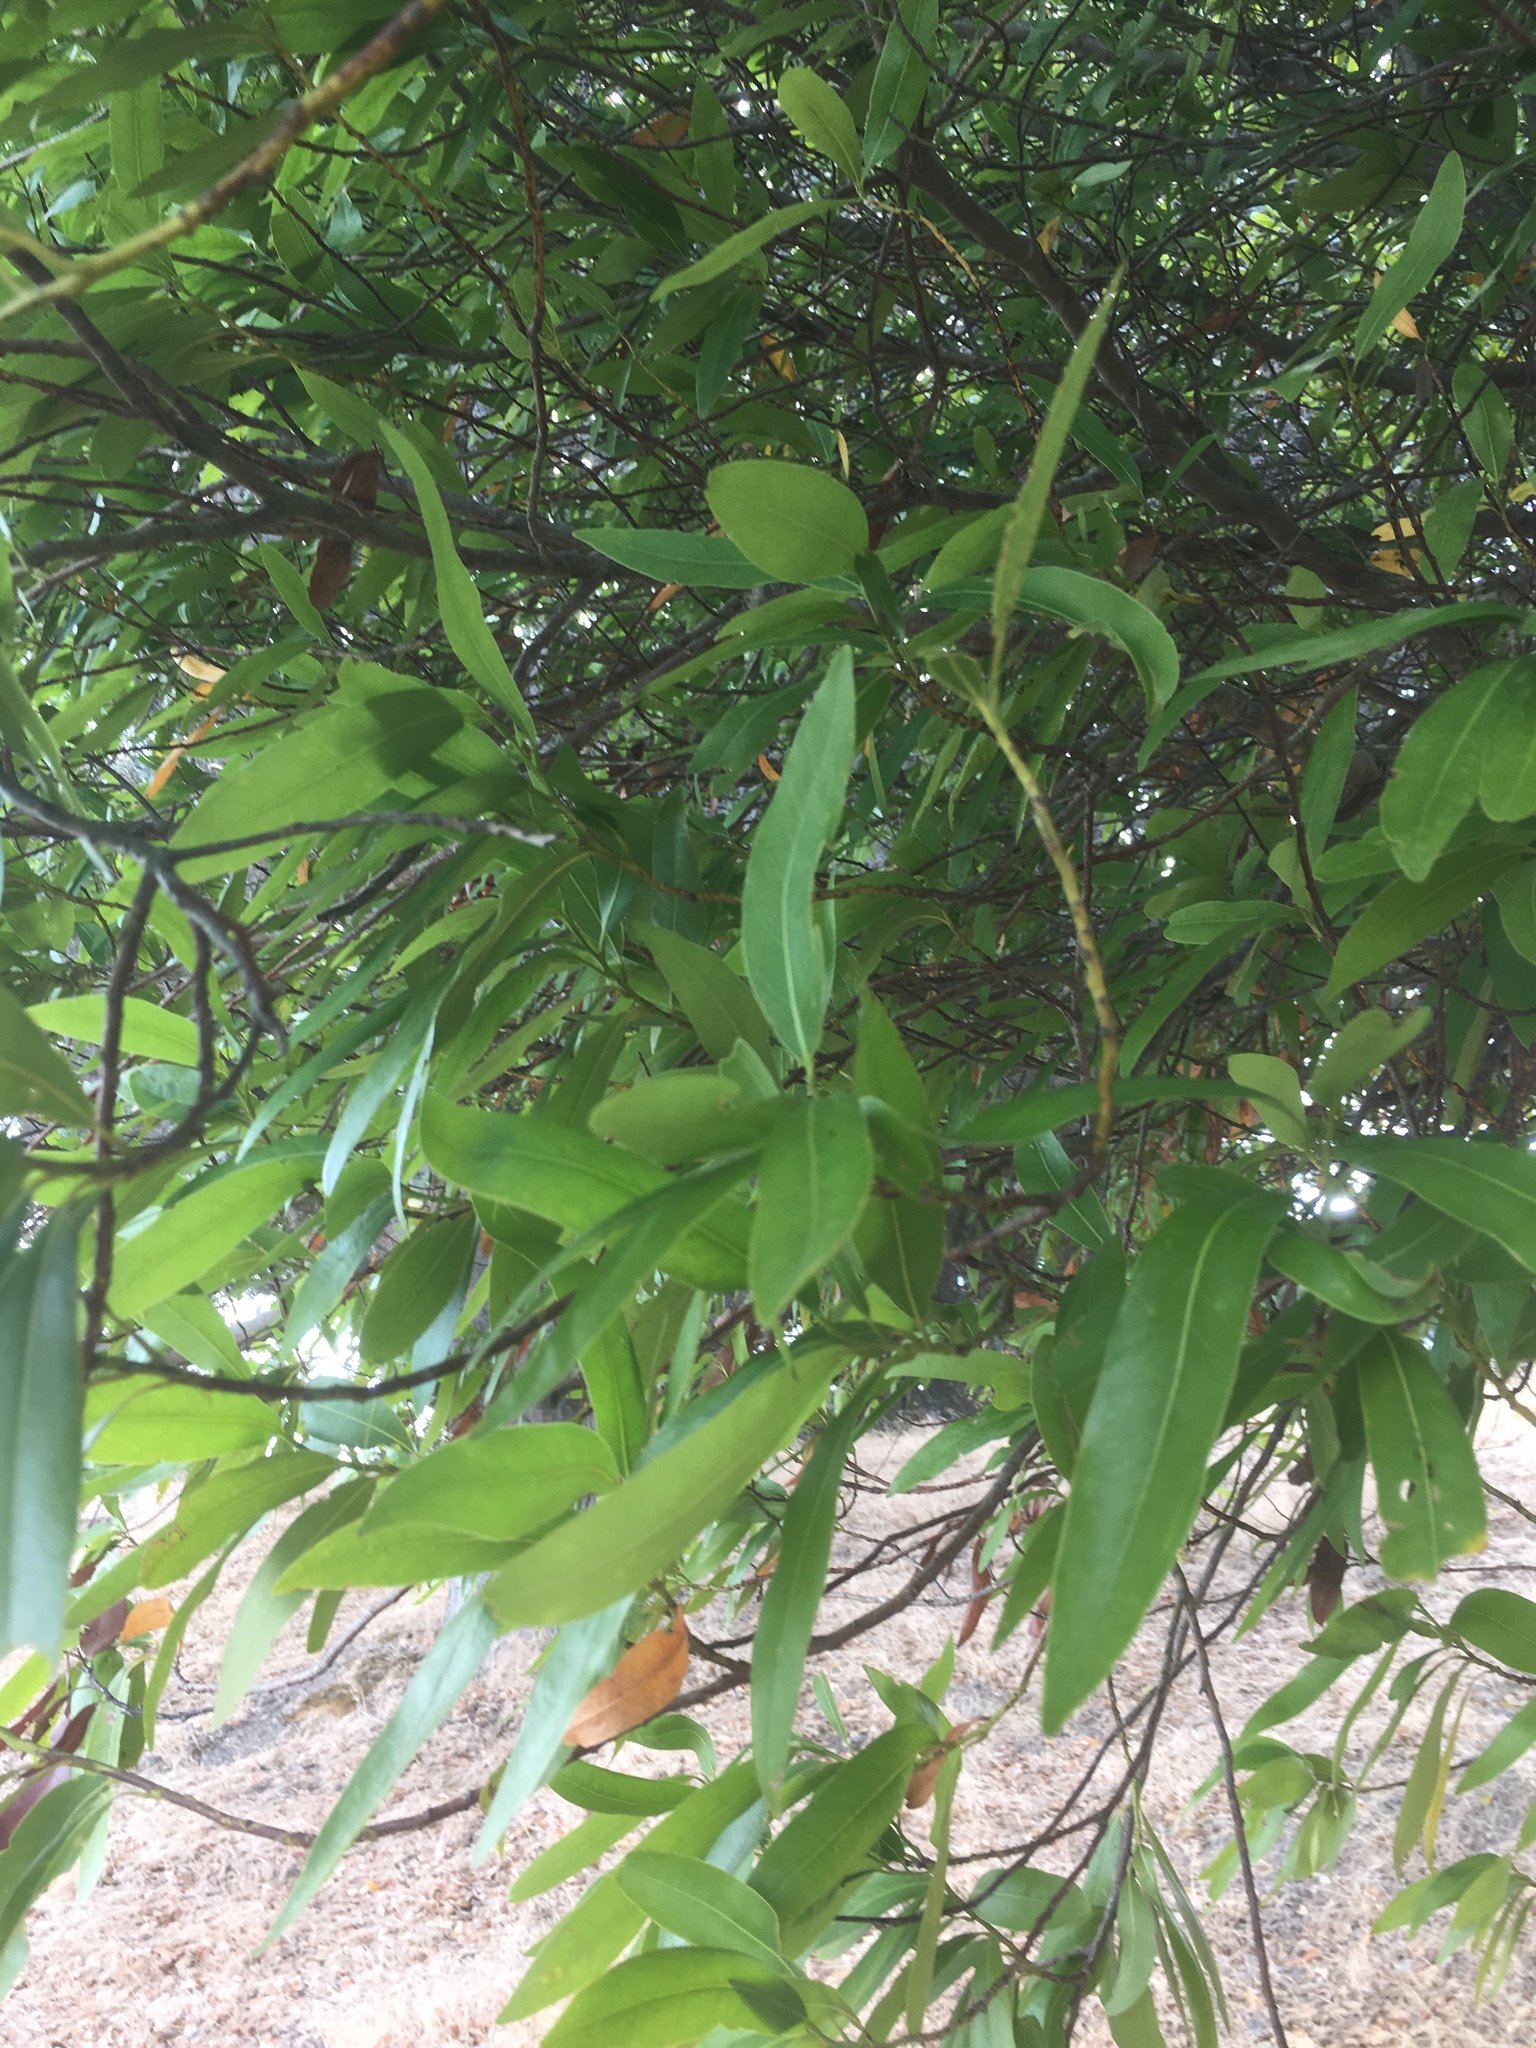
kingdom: Plantae
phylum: Tracheophyta
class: Magnoliopsida
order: Laurales
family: Lauraceae
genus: Umbellularia
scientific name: Umbellularia californica
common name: California bay
